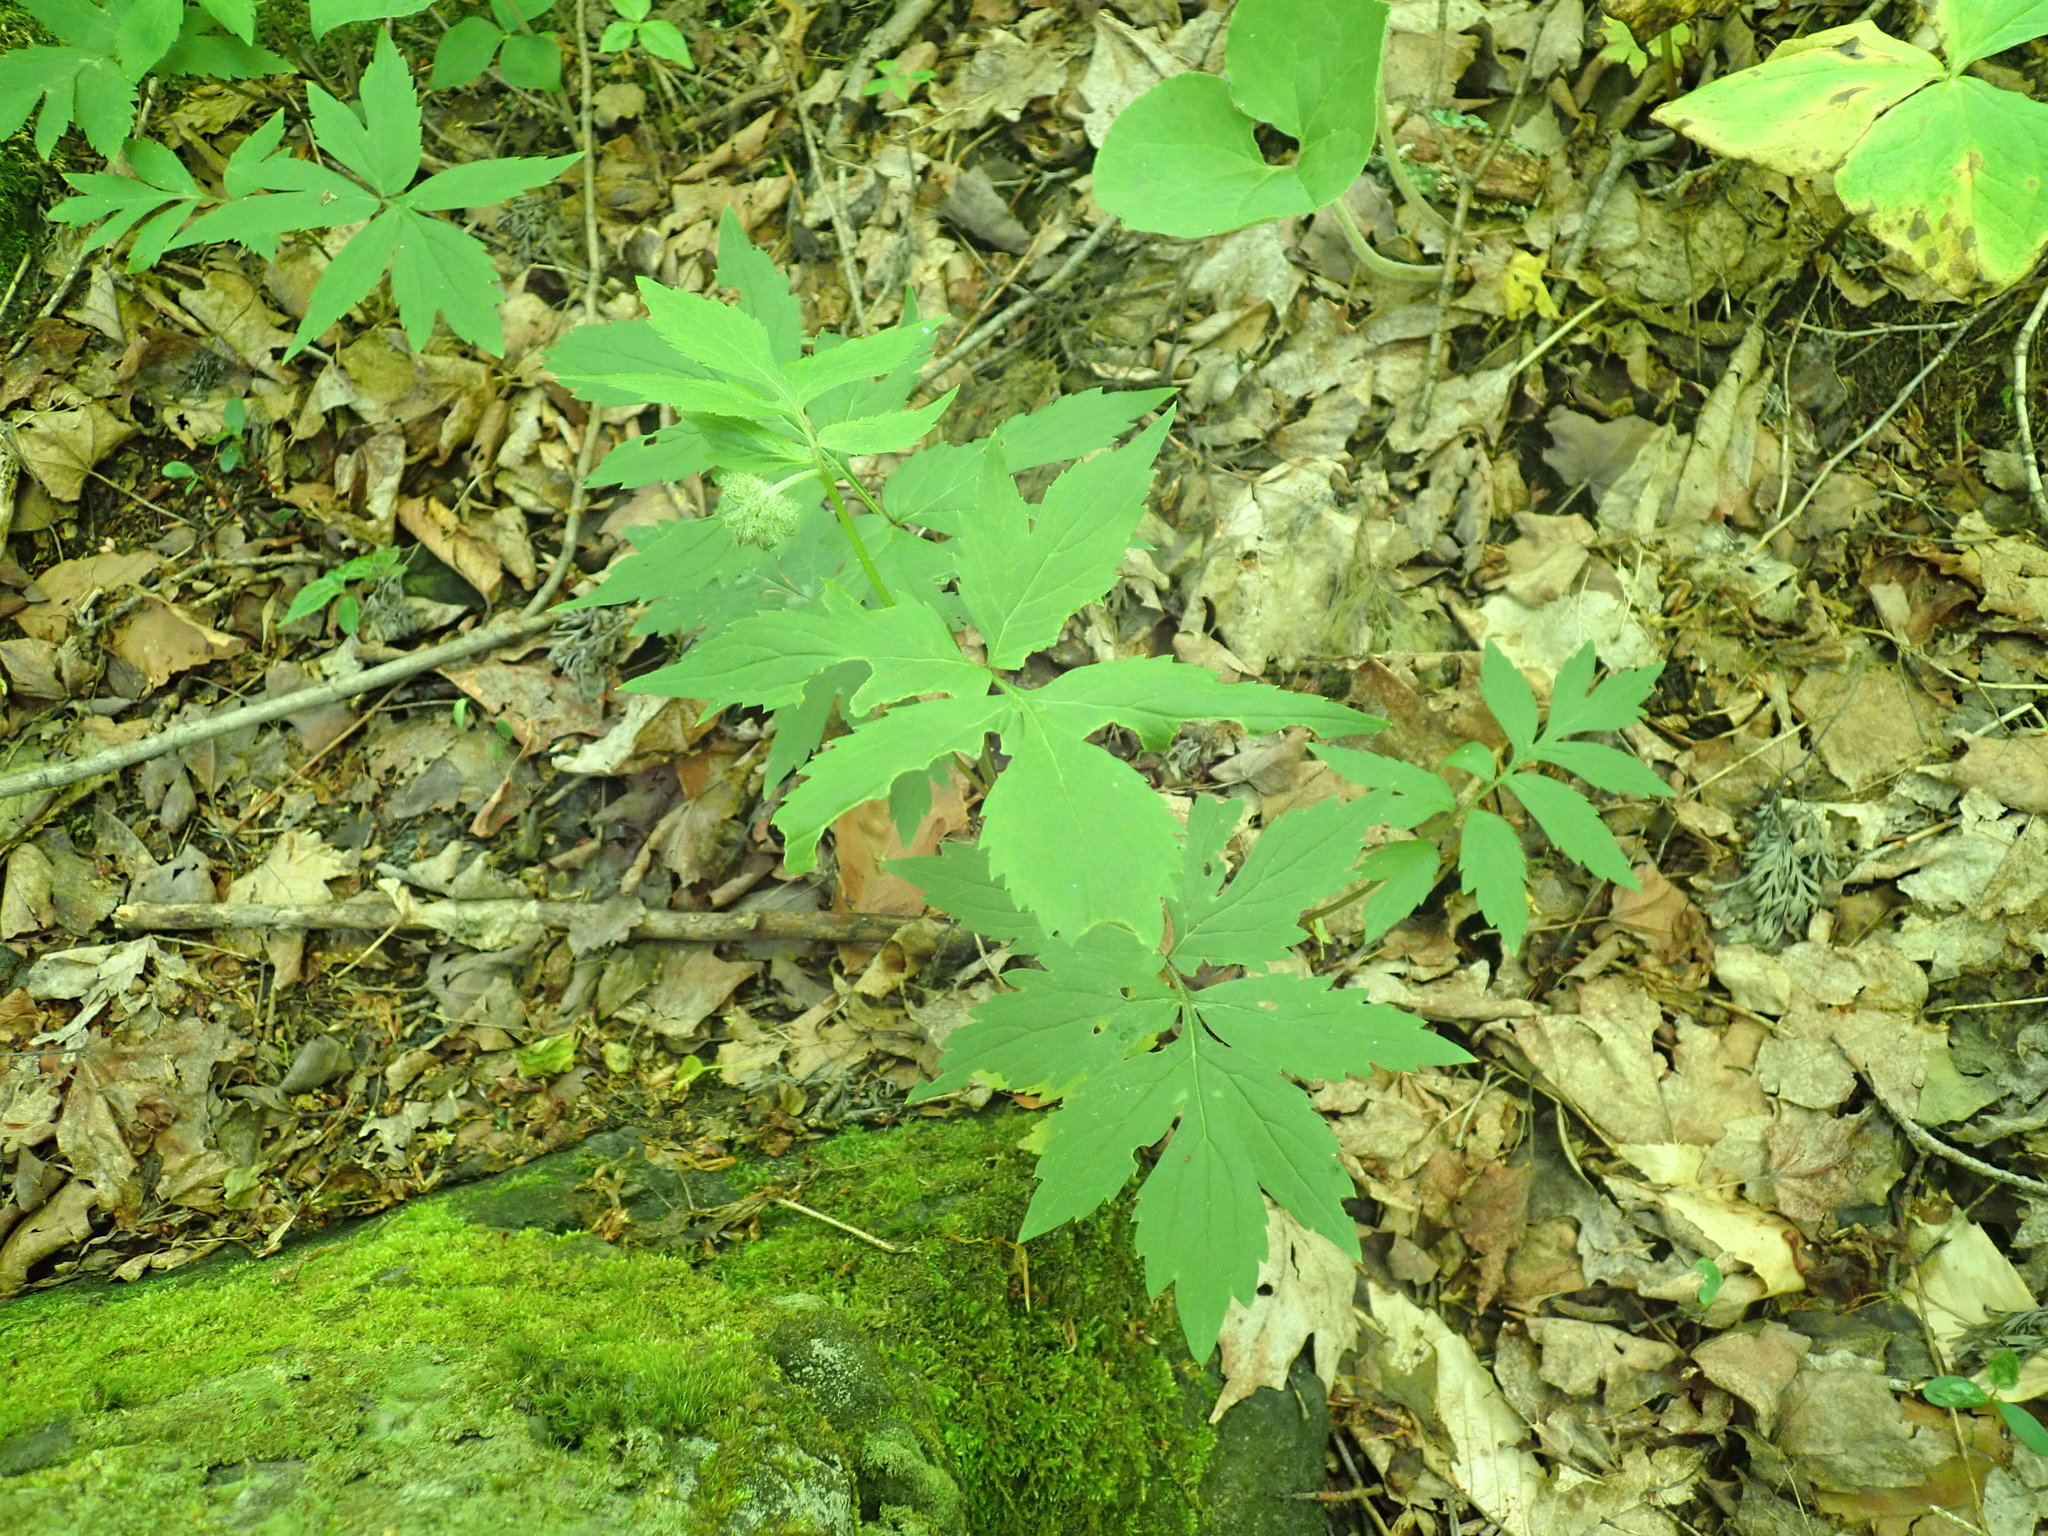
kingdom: Plantae
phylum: Tracheophyta
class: Magnoliopsida
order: Boraginales
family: Hydrophyllaceae
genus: Hydrophyllum
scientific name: Hydrophyllum virginianum
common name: Virginia waterleaf
